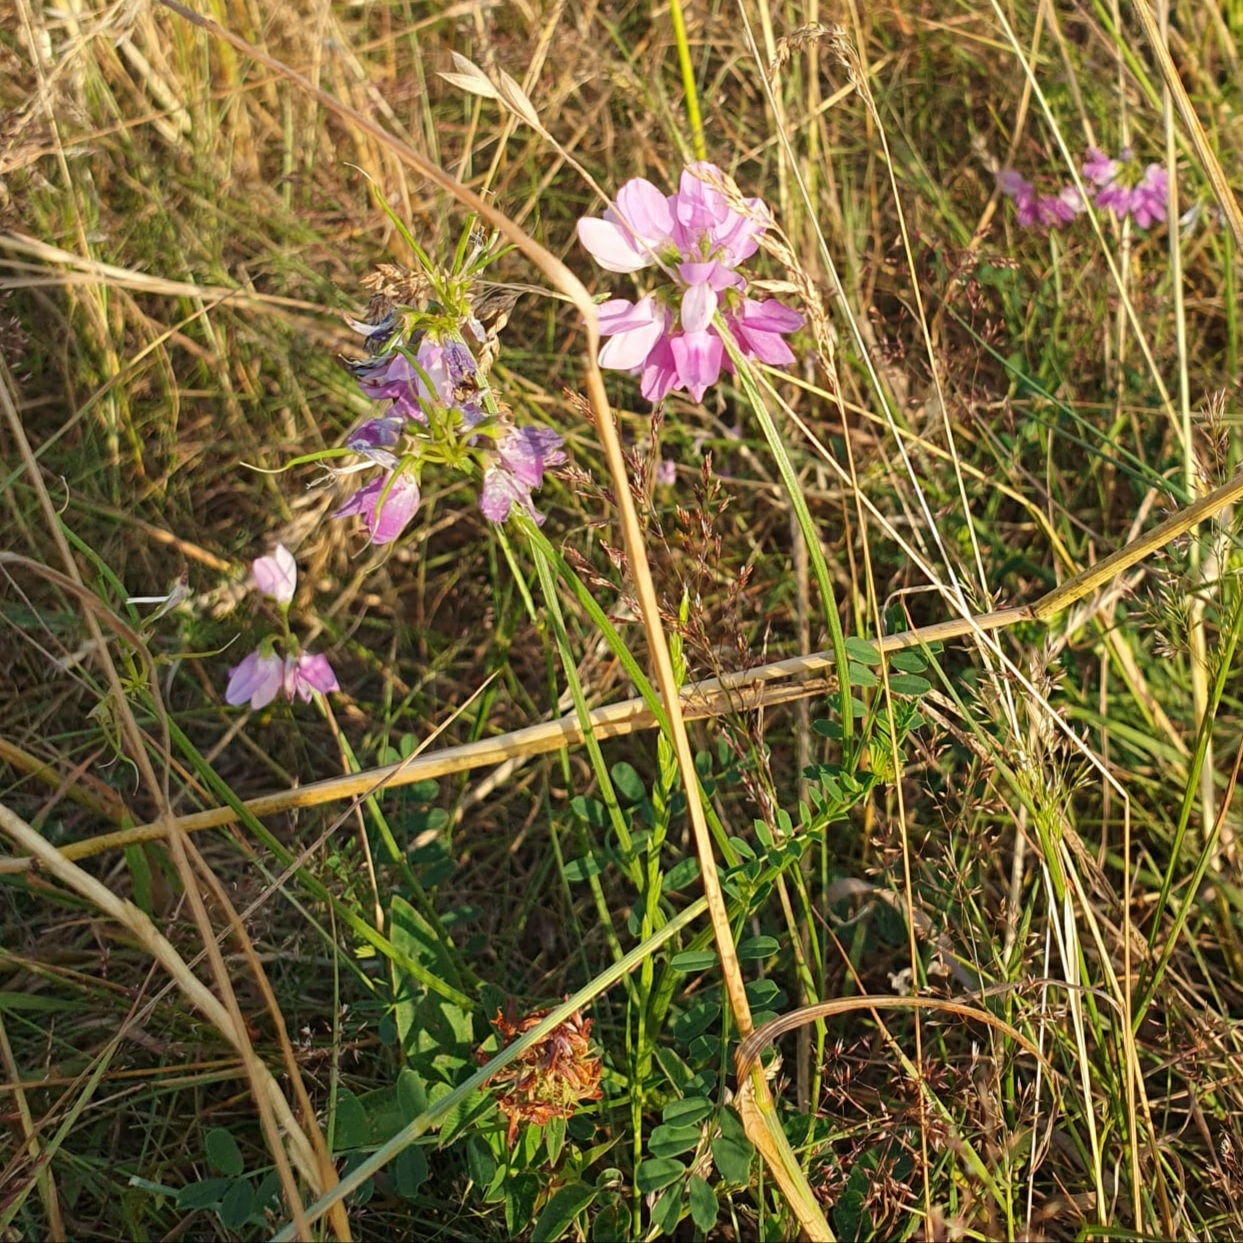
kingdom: Plantae
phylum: Tracheophyta
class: Magnoliopsida
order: Fabales
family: Fabaceae
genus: Coronilla
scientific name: Coronilla varia
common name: Crownvetch
